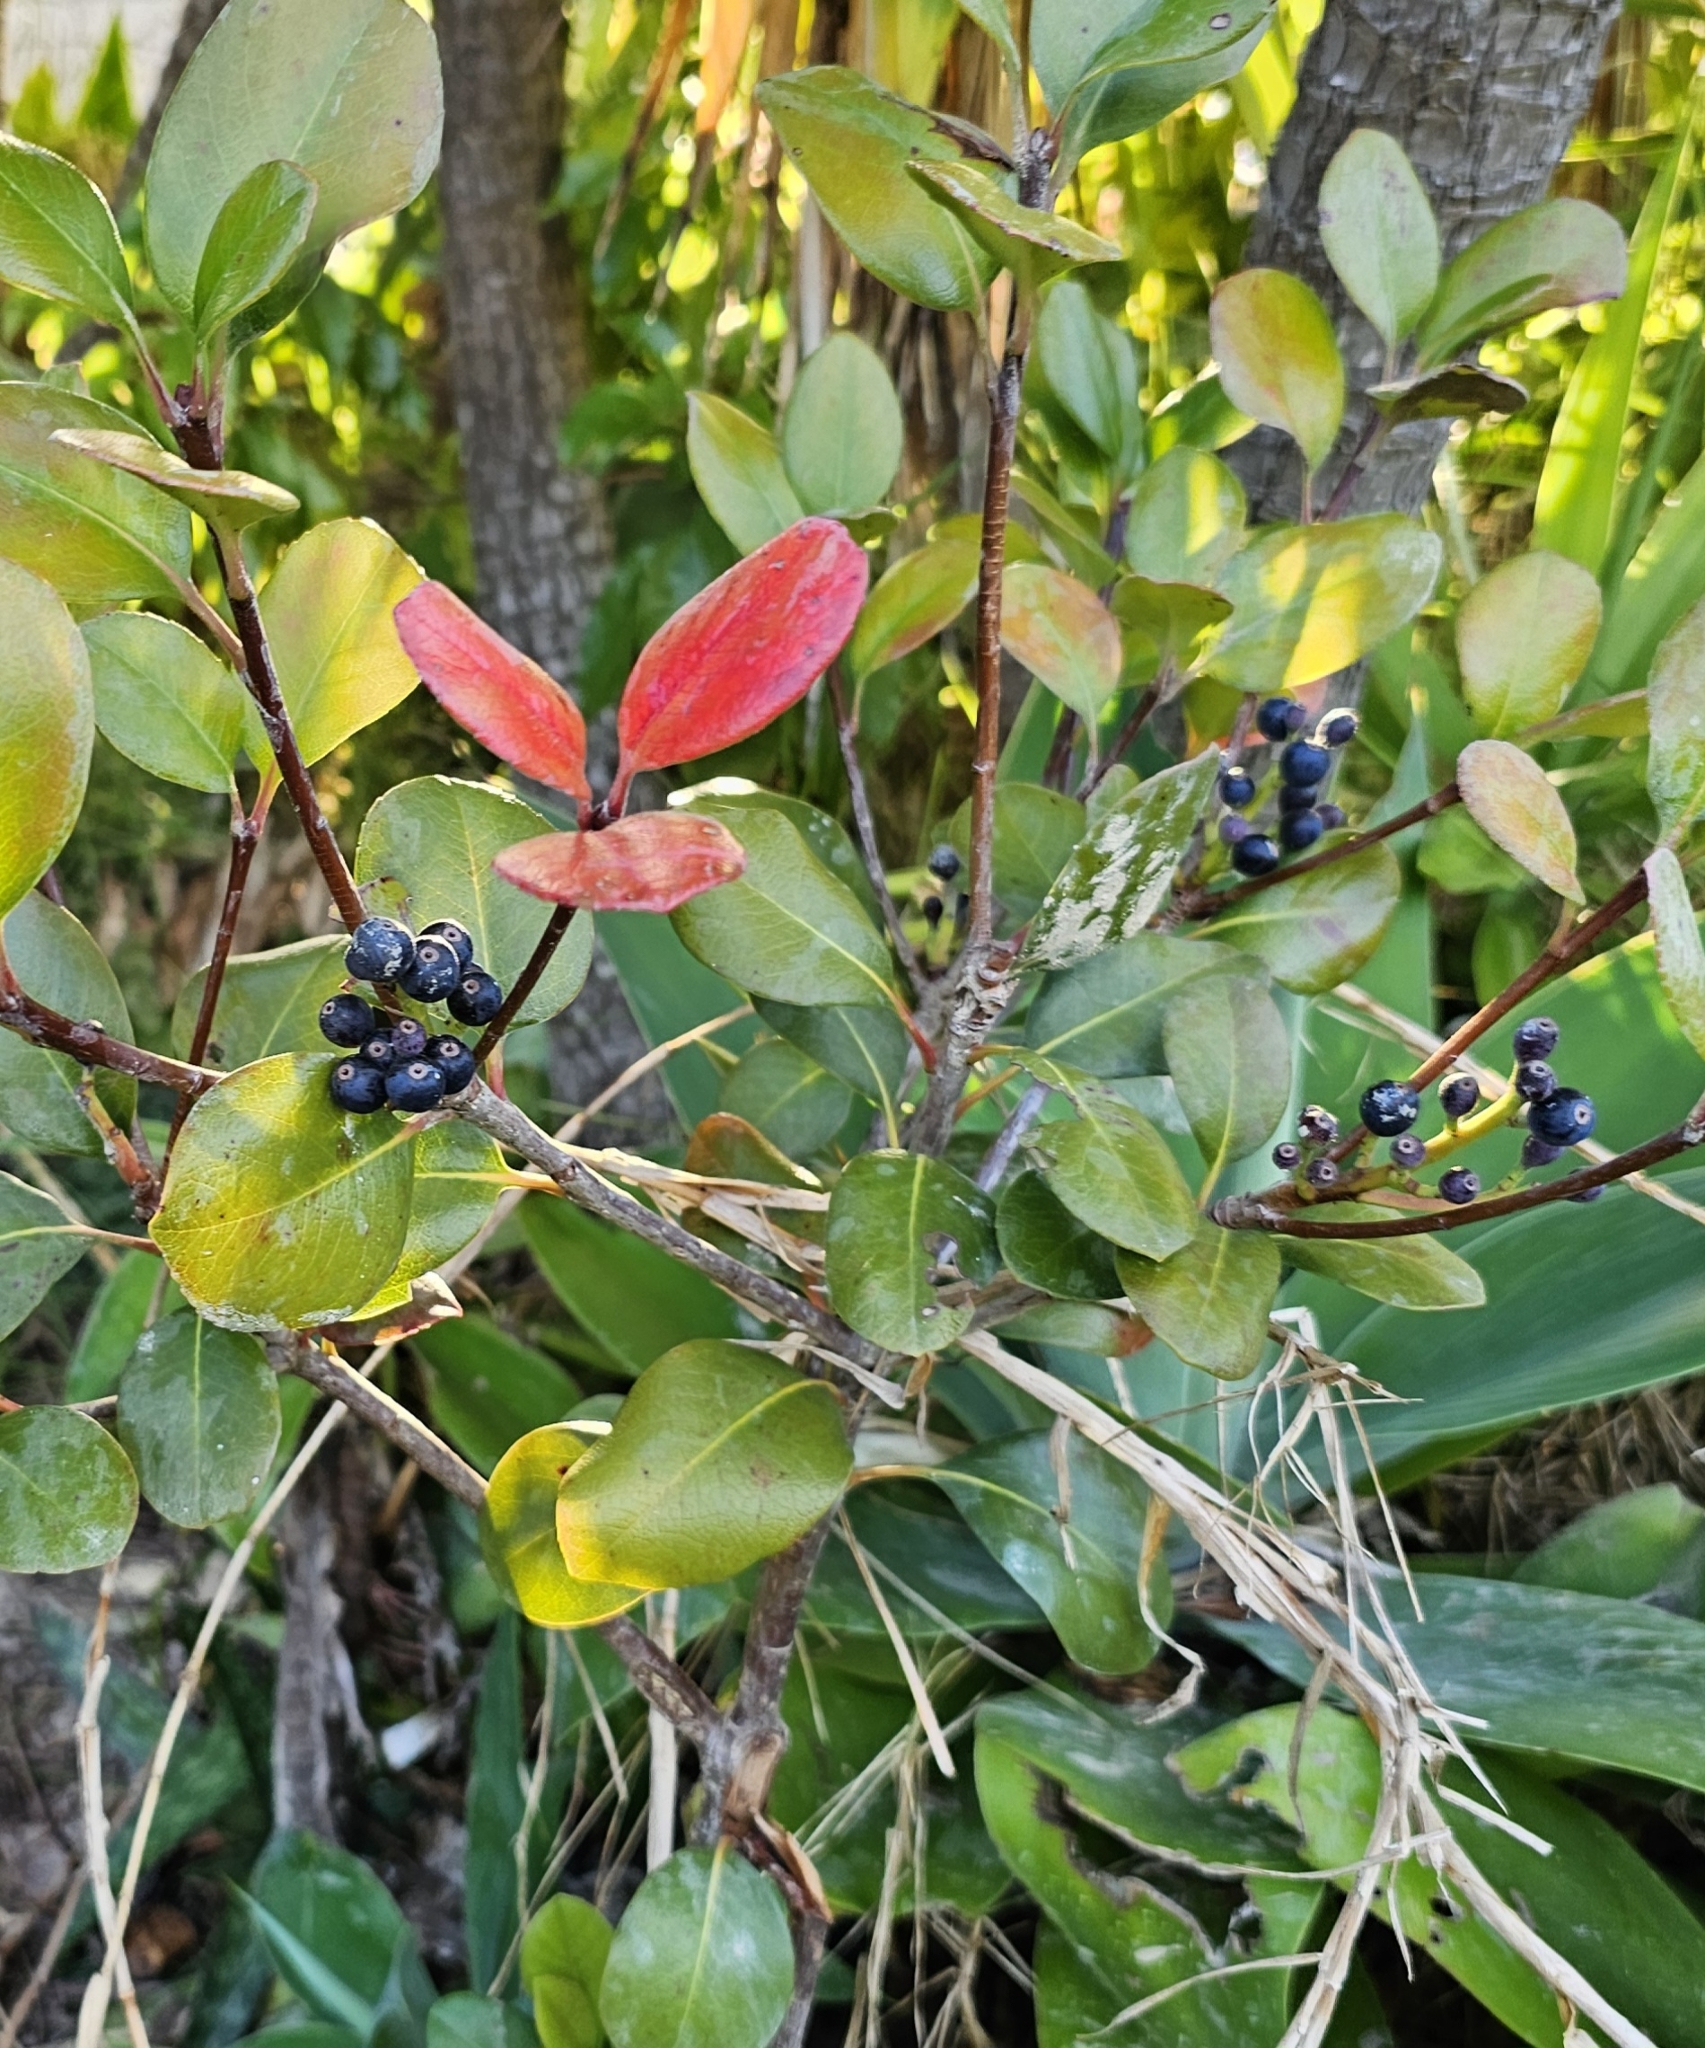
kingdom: Plantae
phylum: Tracheophyta
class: Magnoliopsida
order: Rosales
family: Rosaceae
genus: Rhaphiolepis
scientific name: Rhaphiolepis umbellata
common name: Yedda-hawthorn
